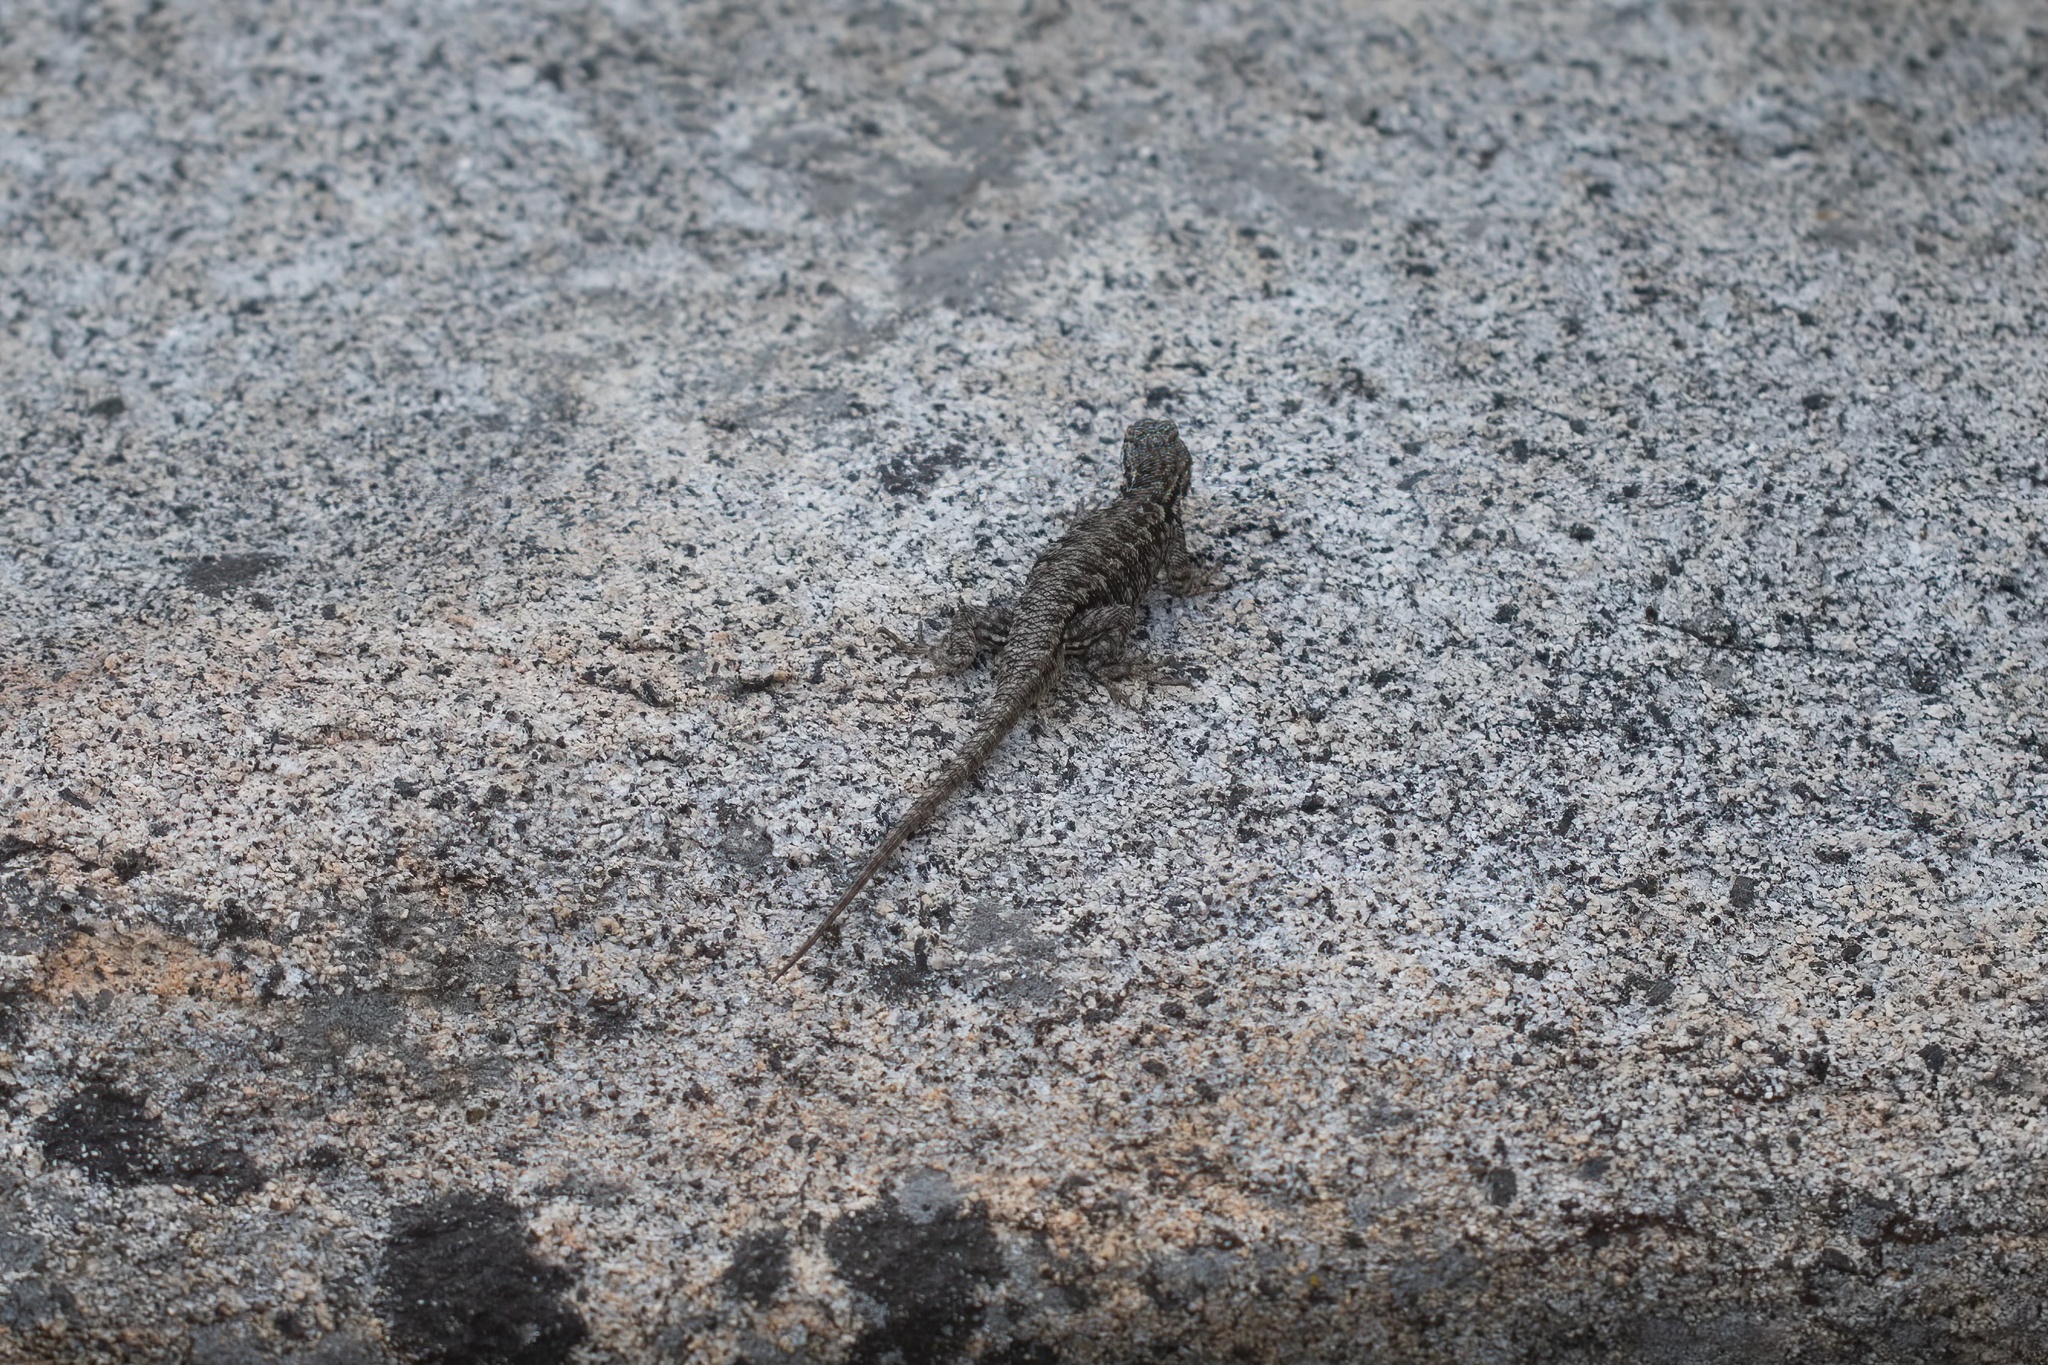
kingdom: Animalia
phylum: Chordata
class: Squamata
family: Phrynosomatidae
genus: Sceloporus
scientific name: Sceloporus occidentalis
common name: Western fence lizard
